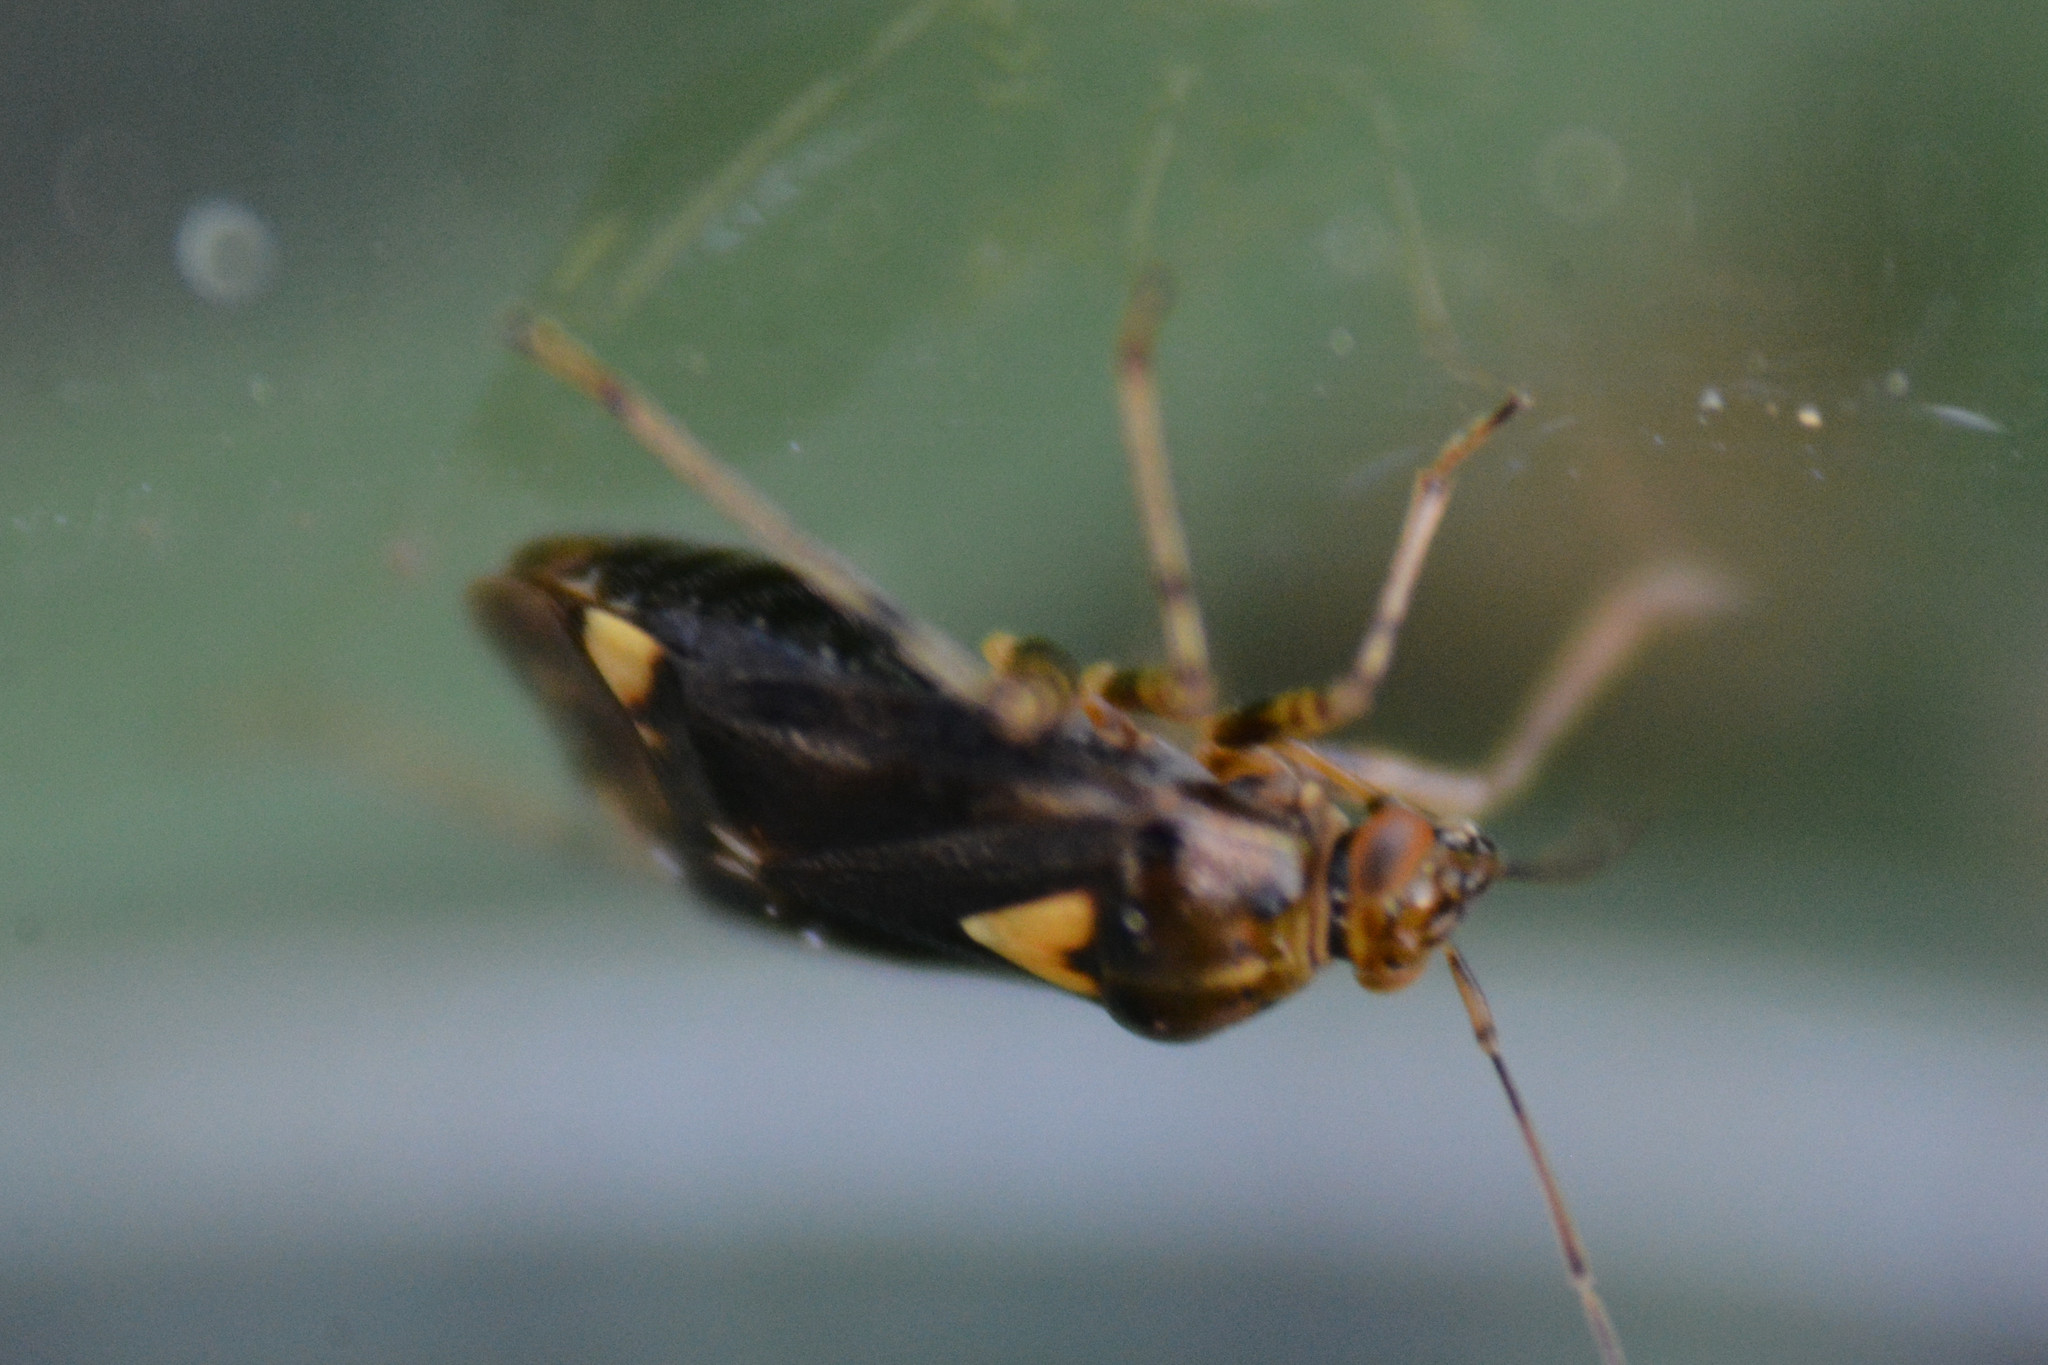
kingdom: Animalia
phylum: Arthropoda
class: Insecta
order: Hemiptera
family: Miridae
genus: Liocoris
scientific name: Liocoris tripustulatus
